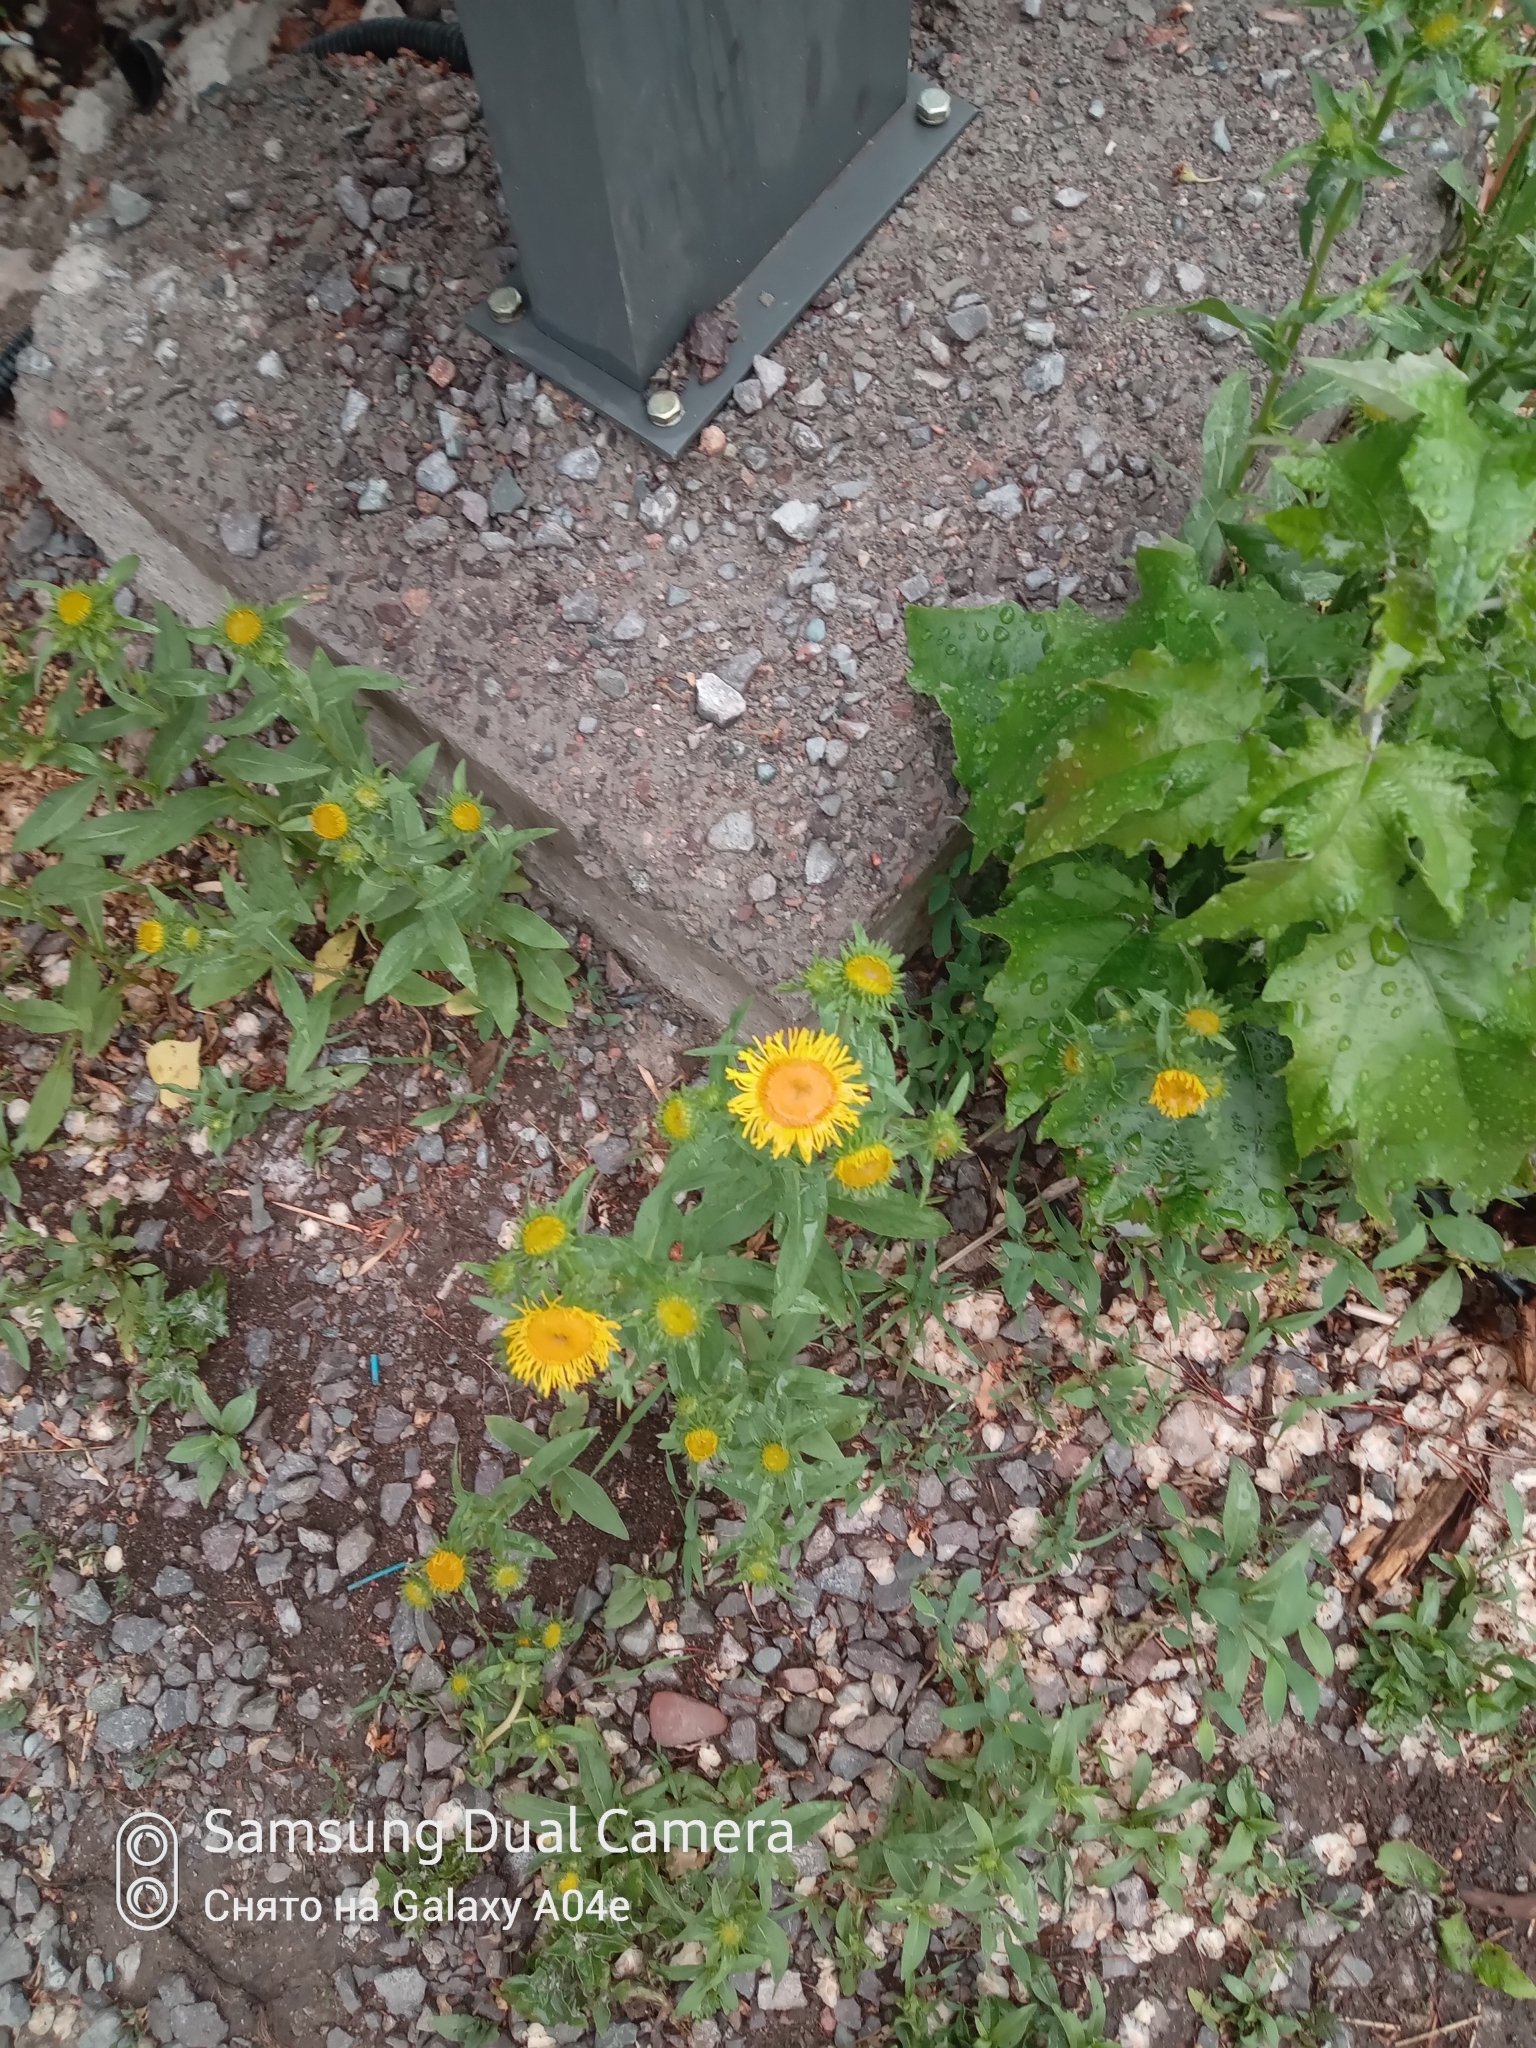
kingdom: Plantae
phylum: Tracheophyta
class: Magnoliopsida
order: Asterales
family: Asteraceae
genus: Pentanema
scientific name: Pentanema britannicum
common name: British elecampane
